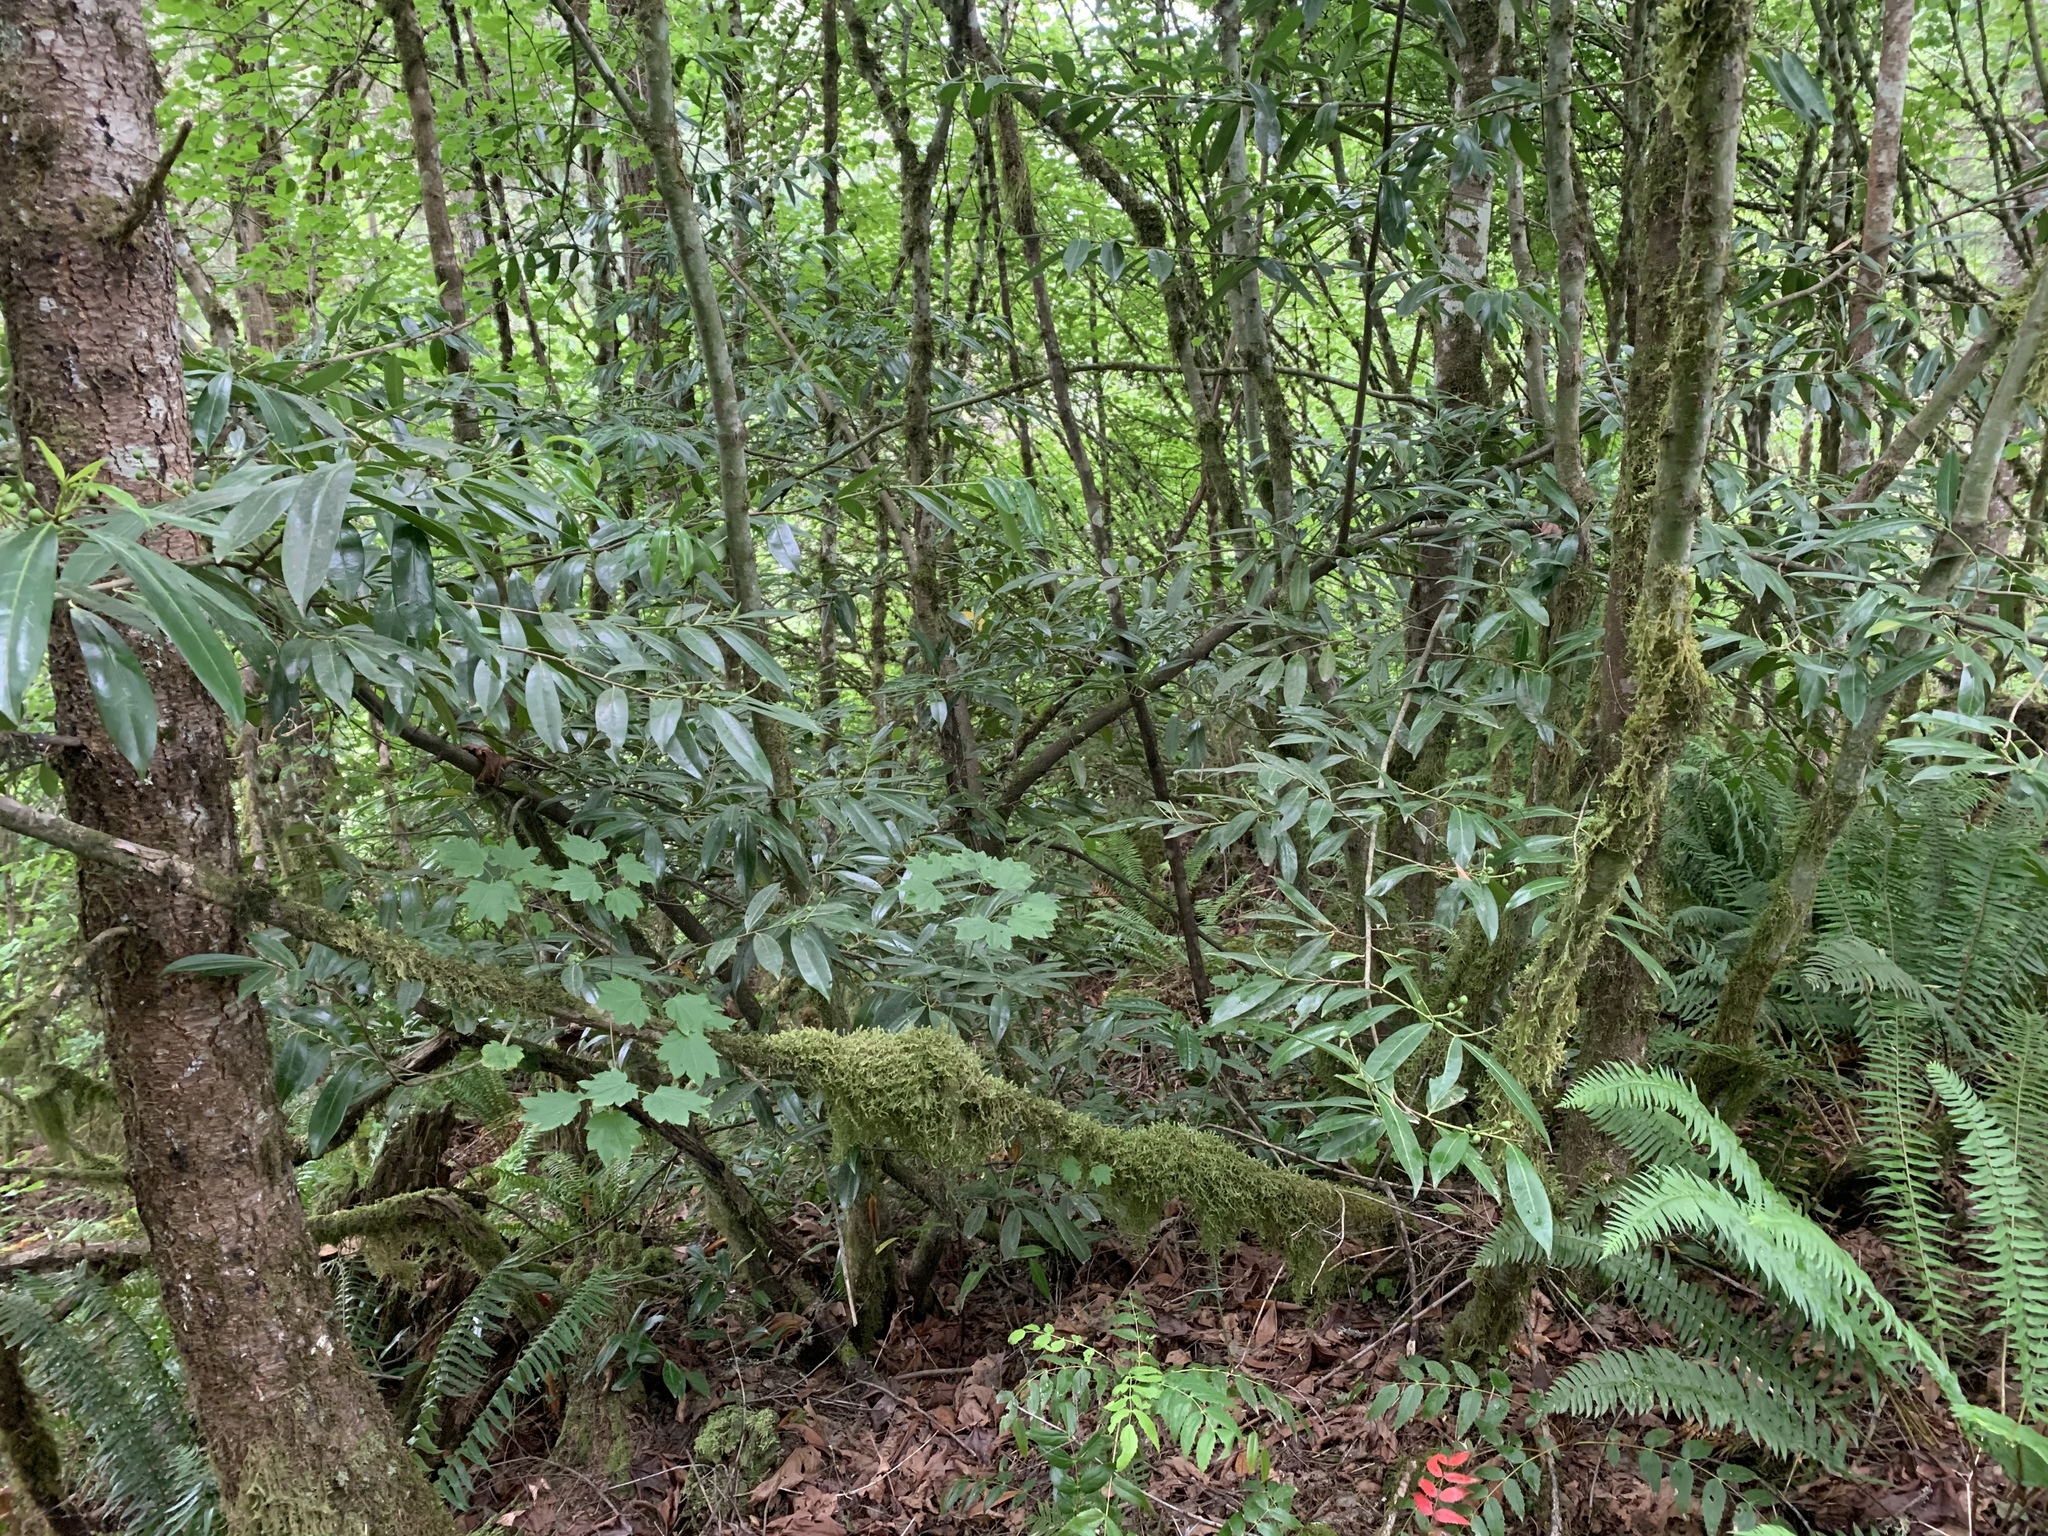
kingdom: Plantae
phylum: Tracheophyta
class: Magnoliopsida
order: Rosales
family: Rosaceae
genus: Prunus
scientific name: Prunus laurocerasus
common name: Cherry laurel
